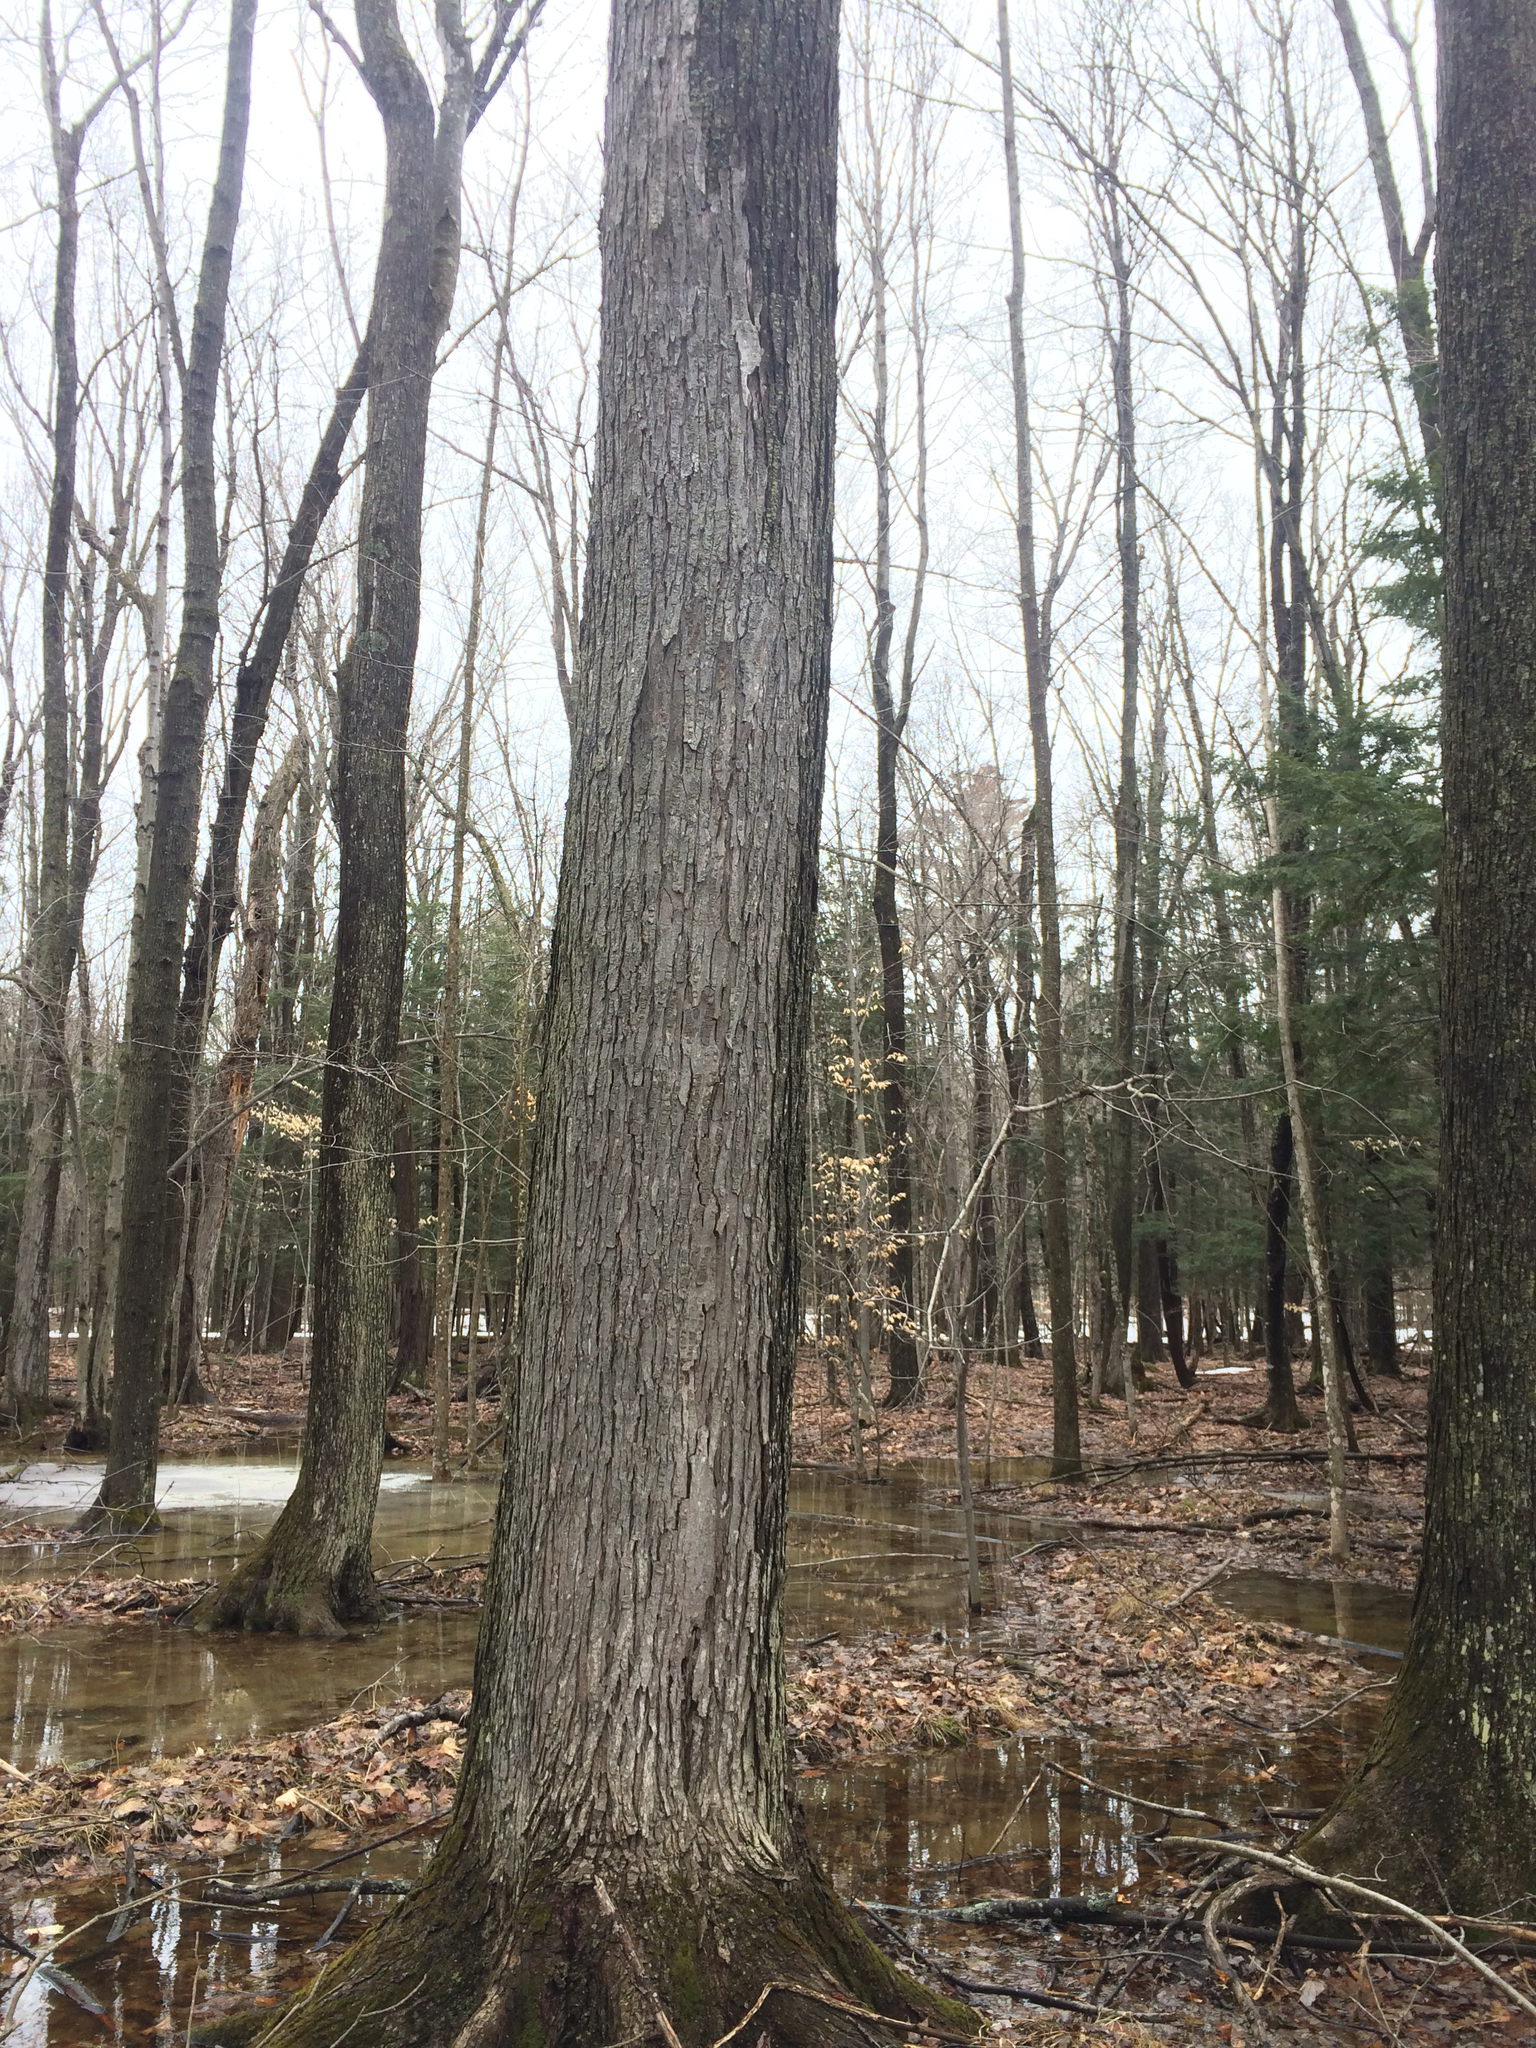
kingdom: Plantae
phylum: Tracheophyta
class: Magnoliopsida
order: Sapindales
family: Sapindaceae
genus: Acer
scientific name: Acer saccharinum
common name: Silver maple
